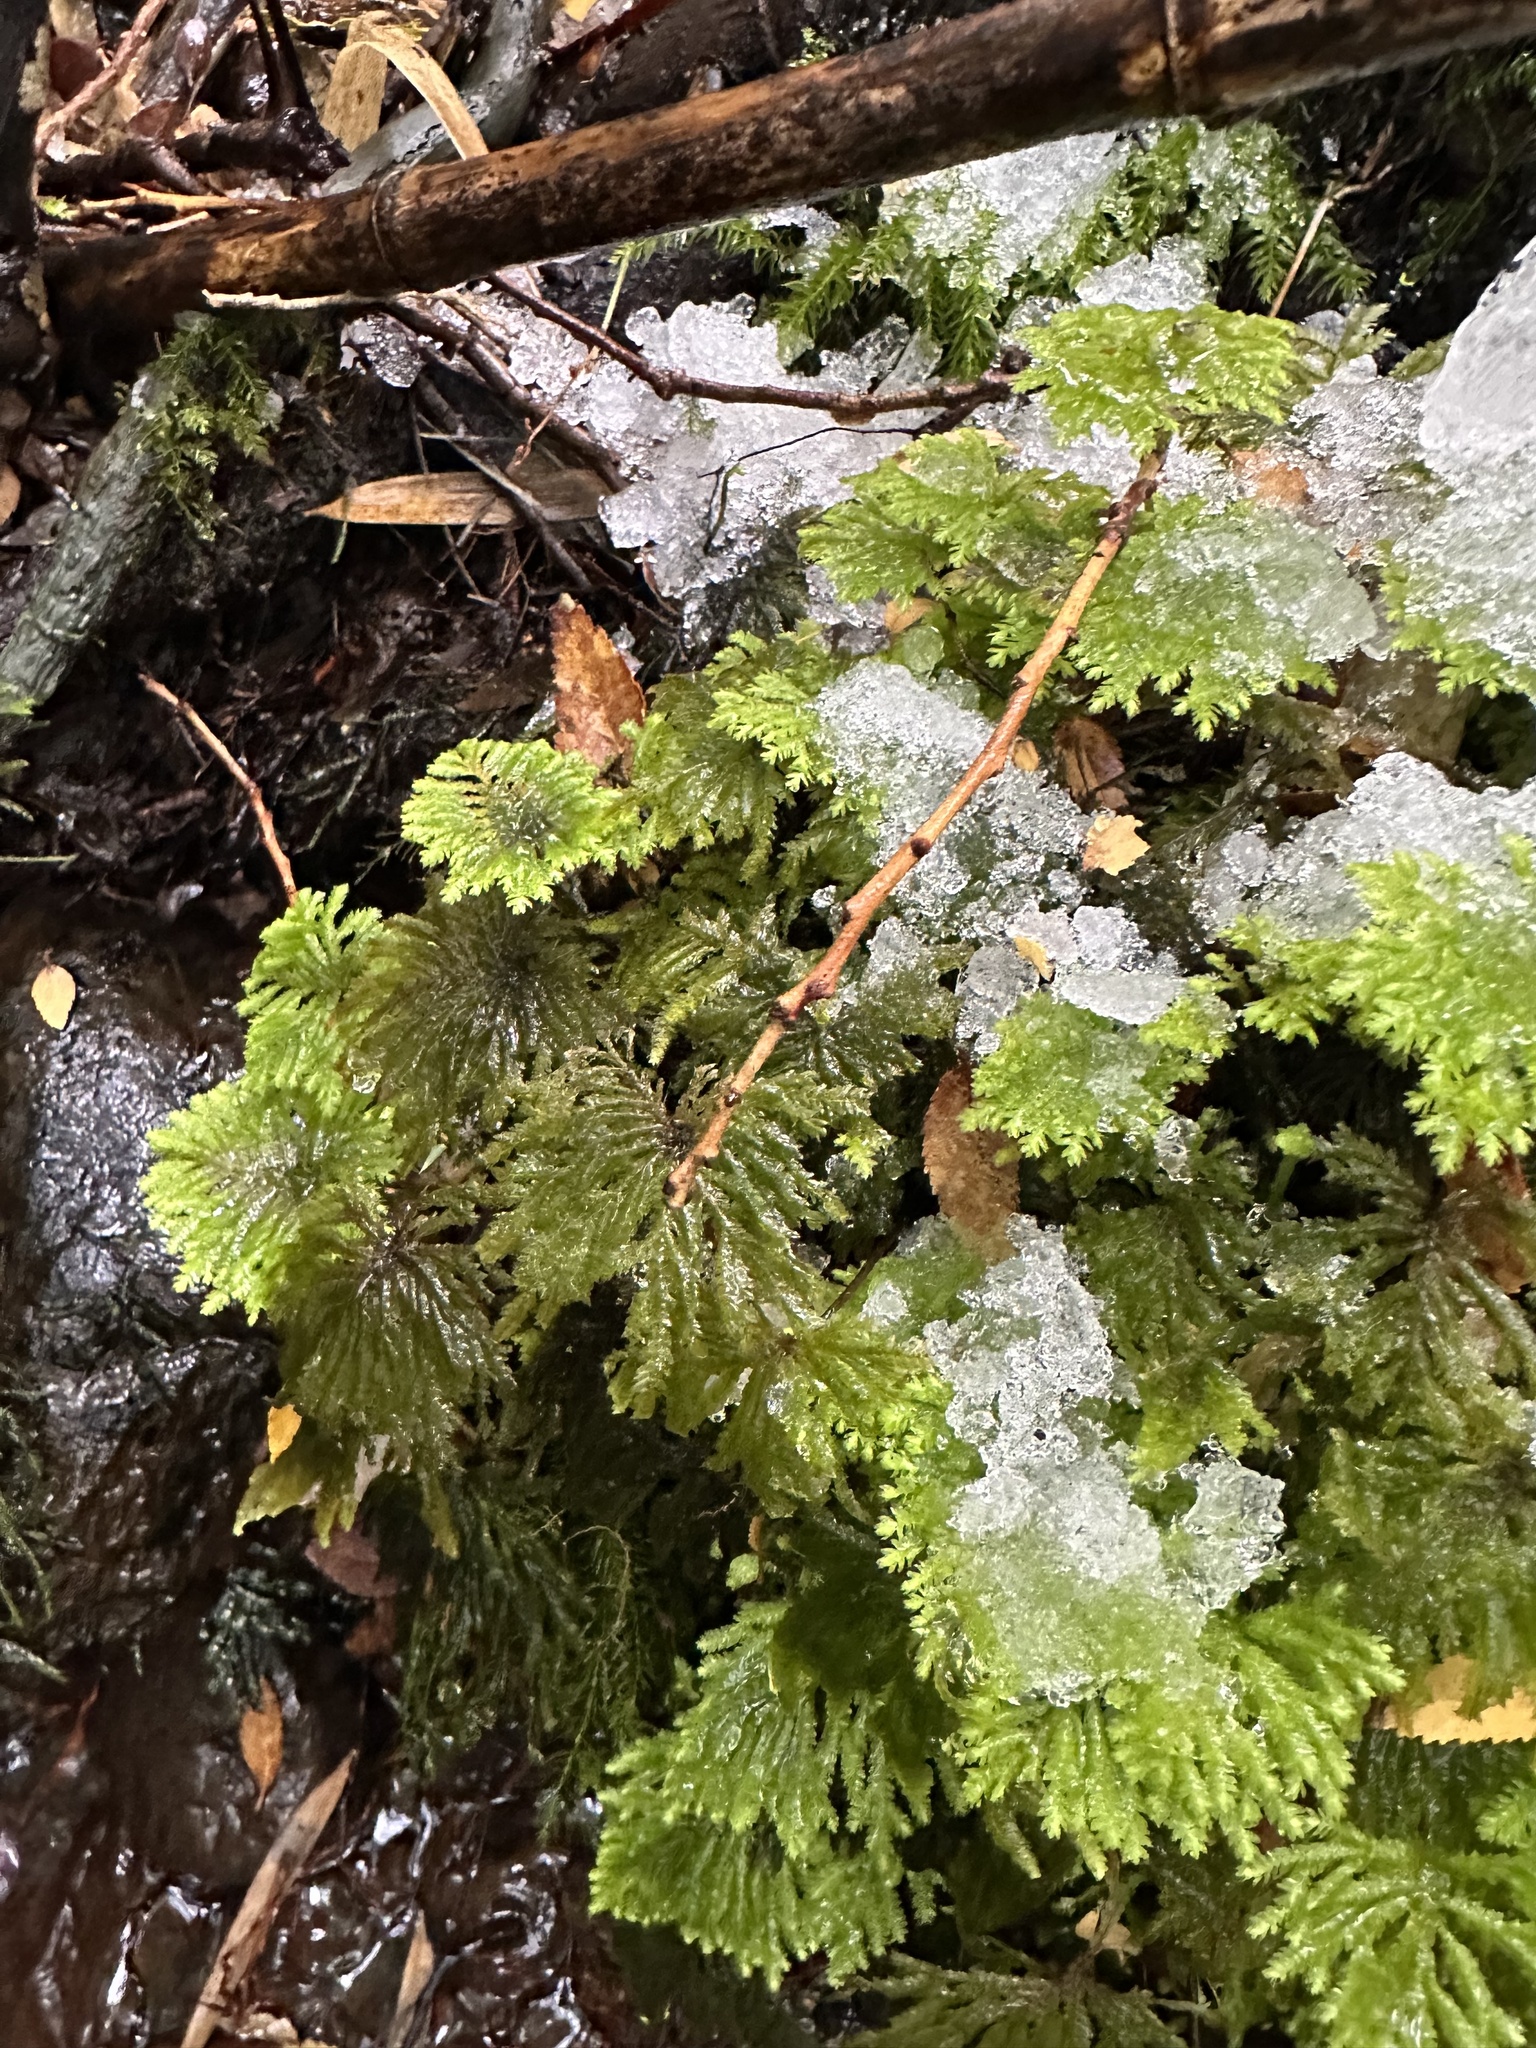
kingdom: Plantae
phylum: Bryophyta
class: Bryopsida
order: Hypopterygiales
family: Hypopterygiaceae
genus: Arbusculohypopterygium
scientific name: Arbusculohypopterygium arbuscula
